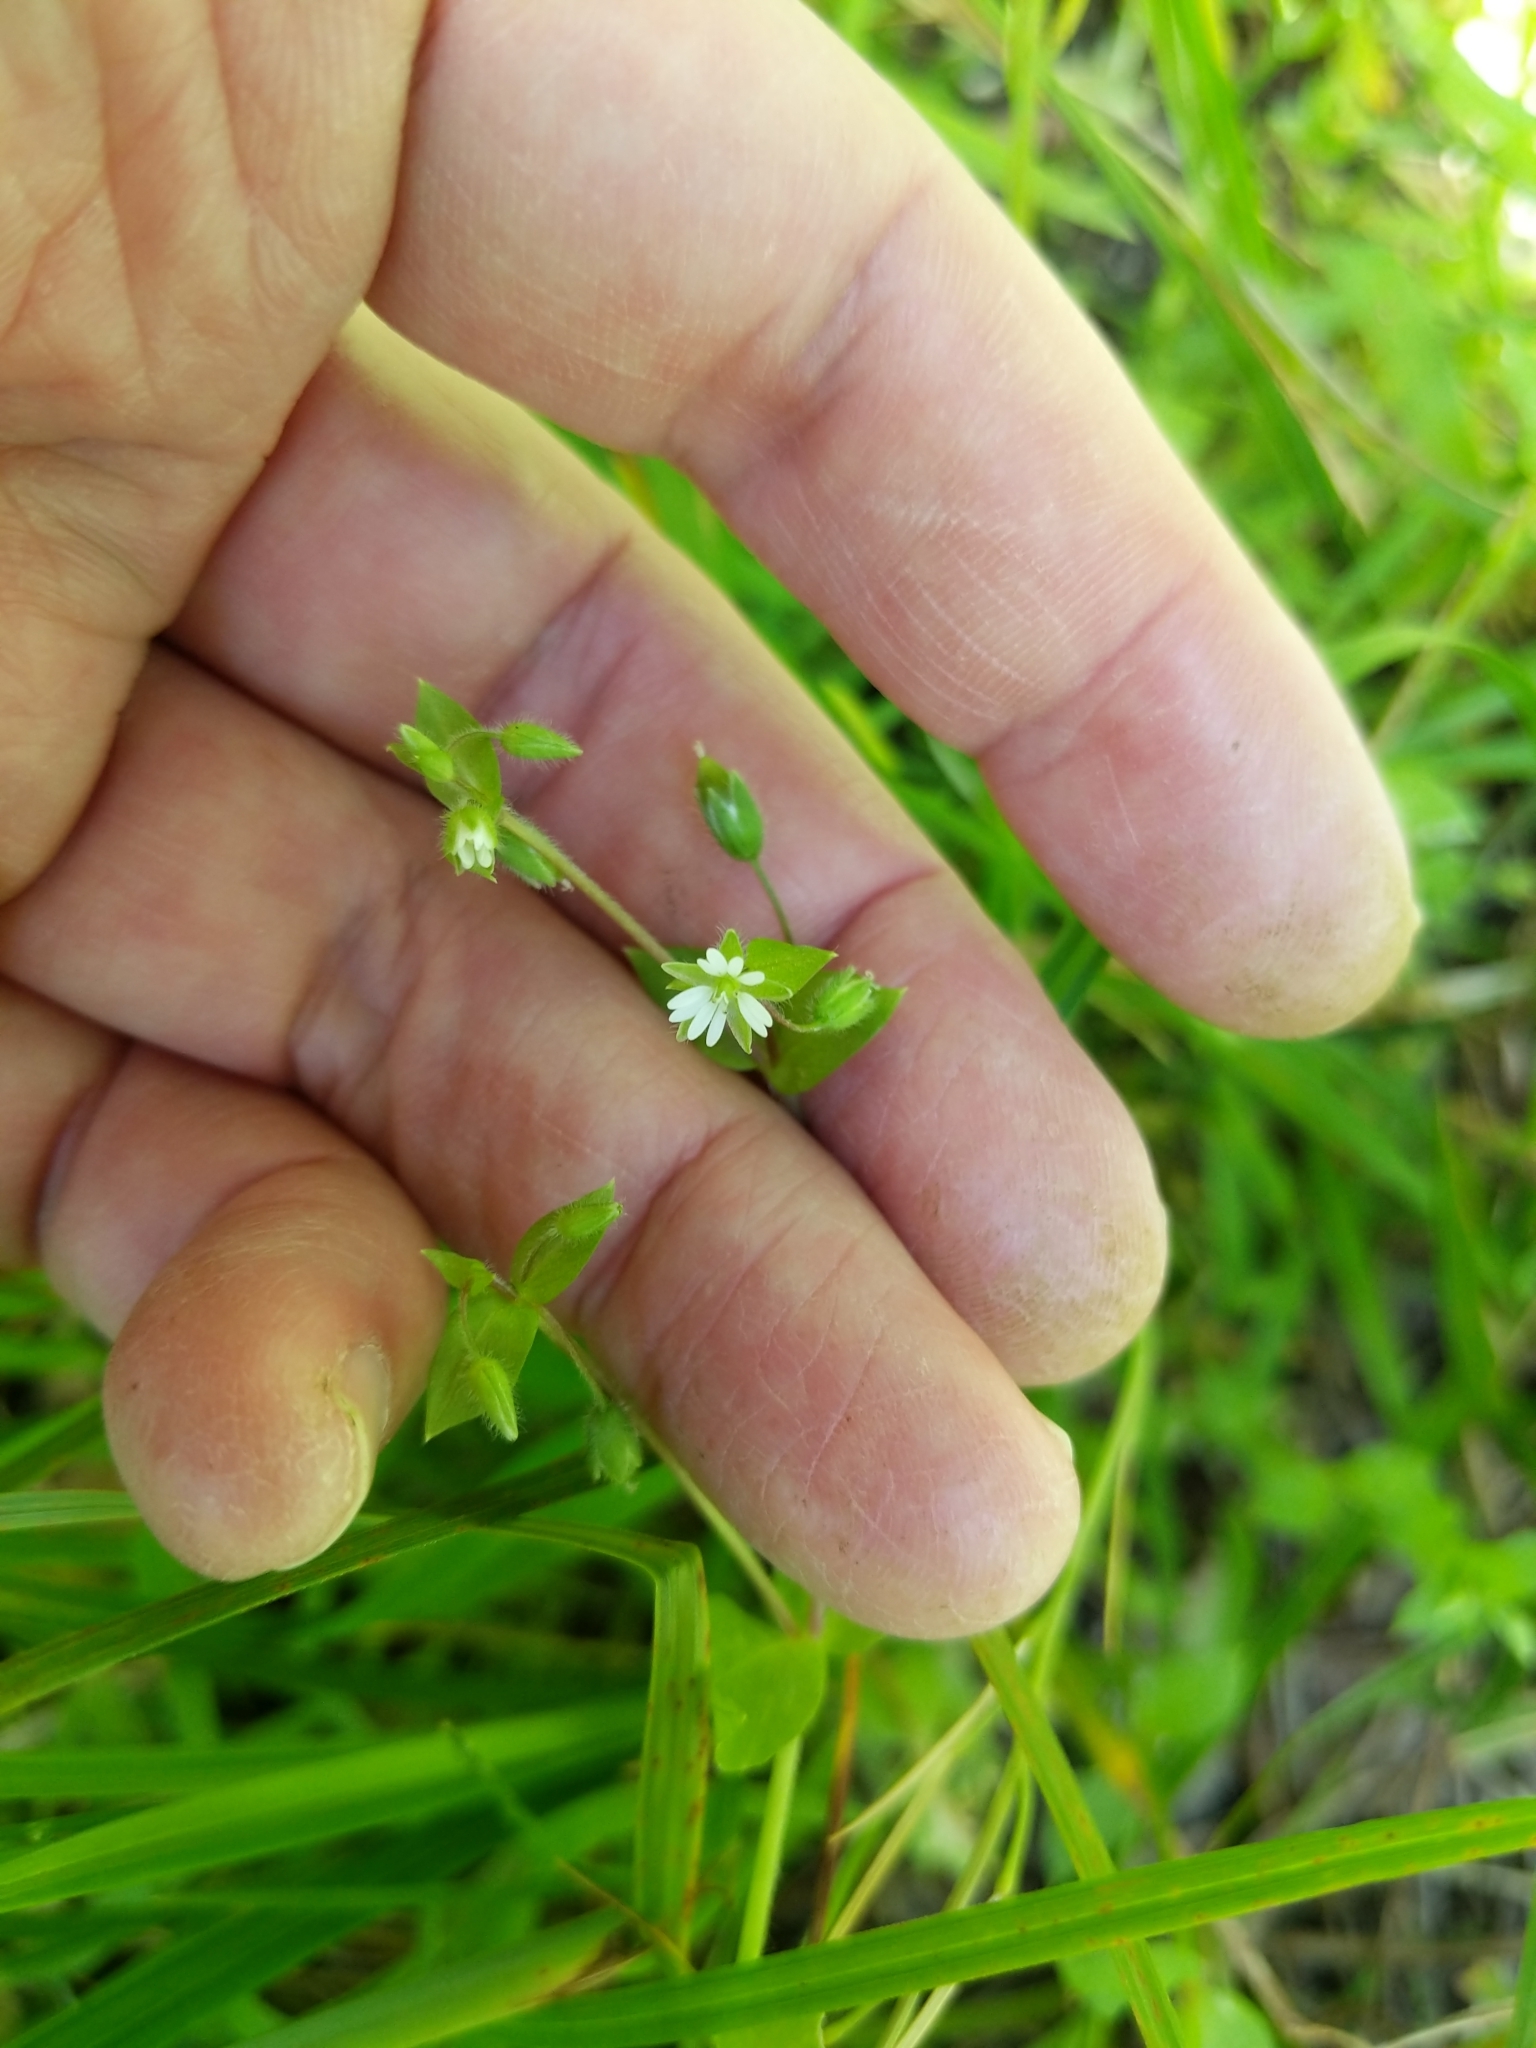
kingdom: Plantae
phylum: Tracheophyta
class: Magnoliopsida
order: Caryophyllales
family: Caryophyllaceae
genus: Stellaria
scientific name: Stellaria media
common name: Common chickweed
